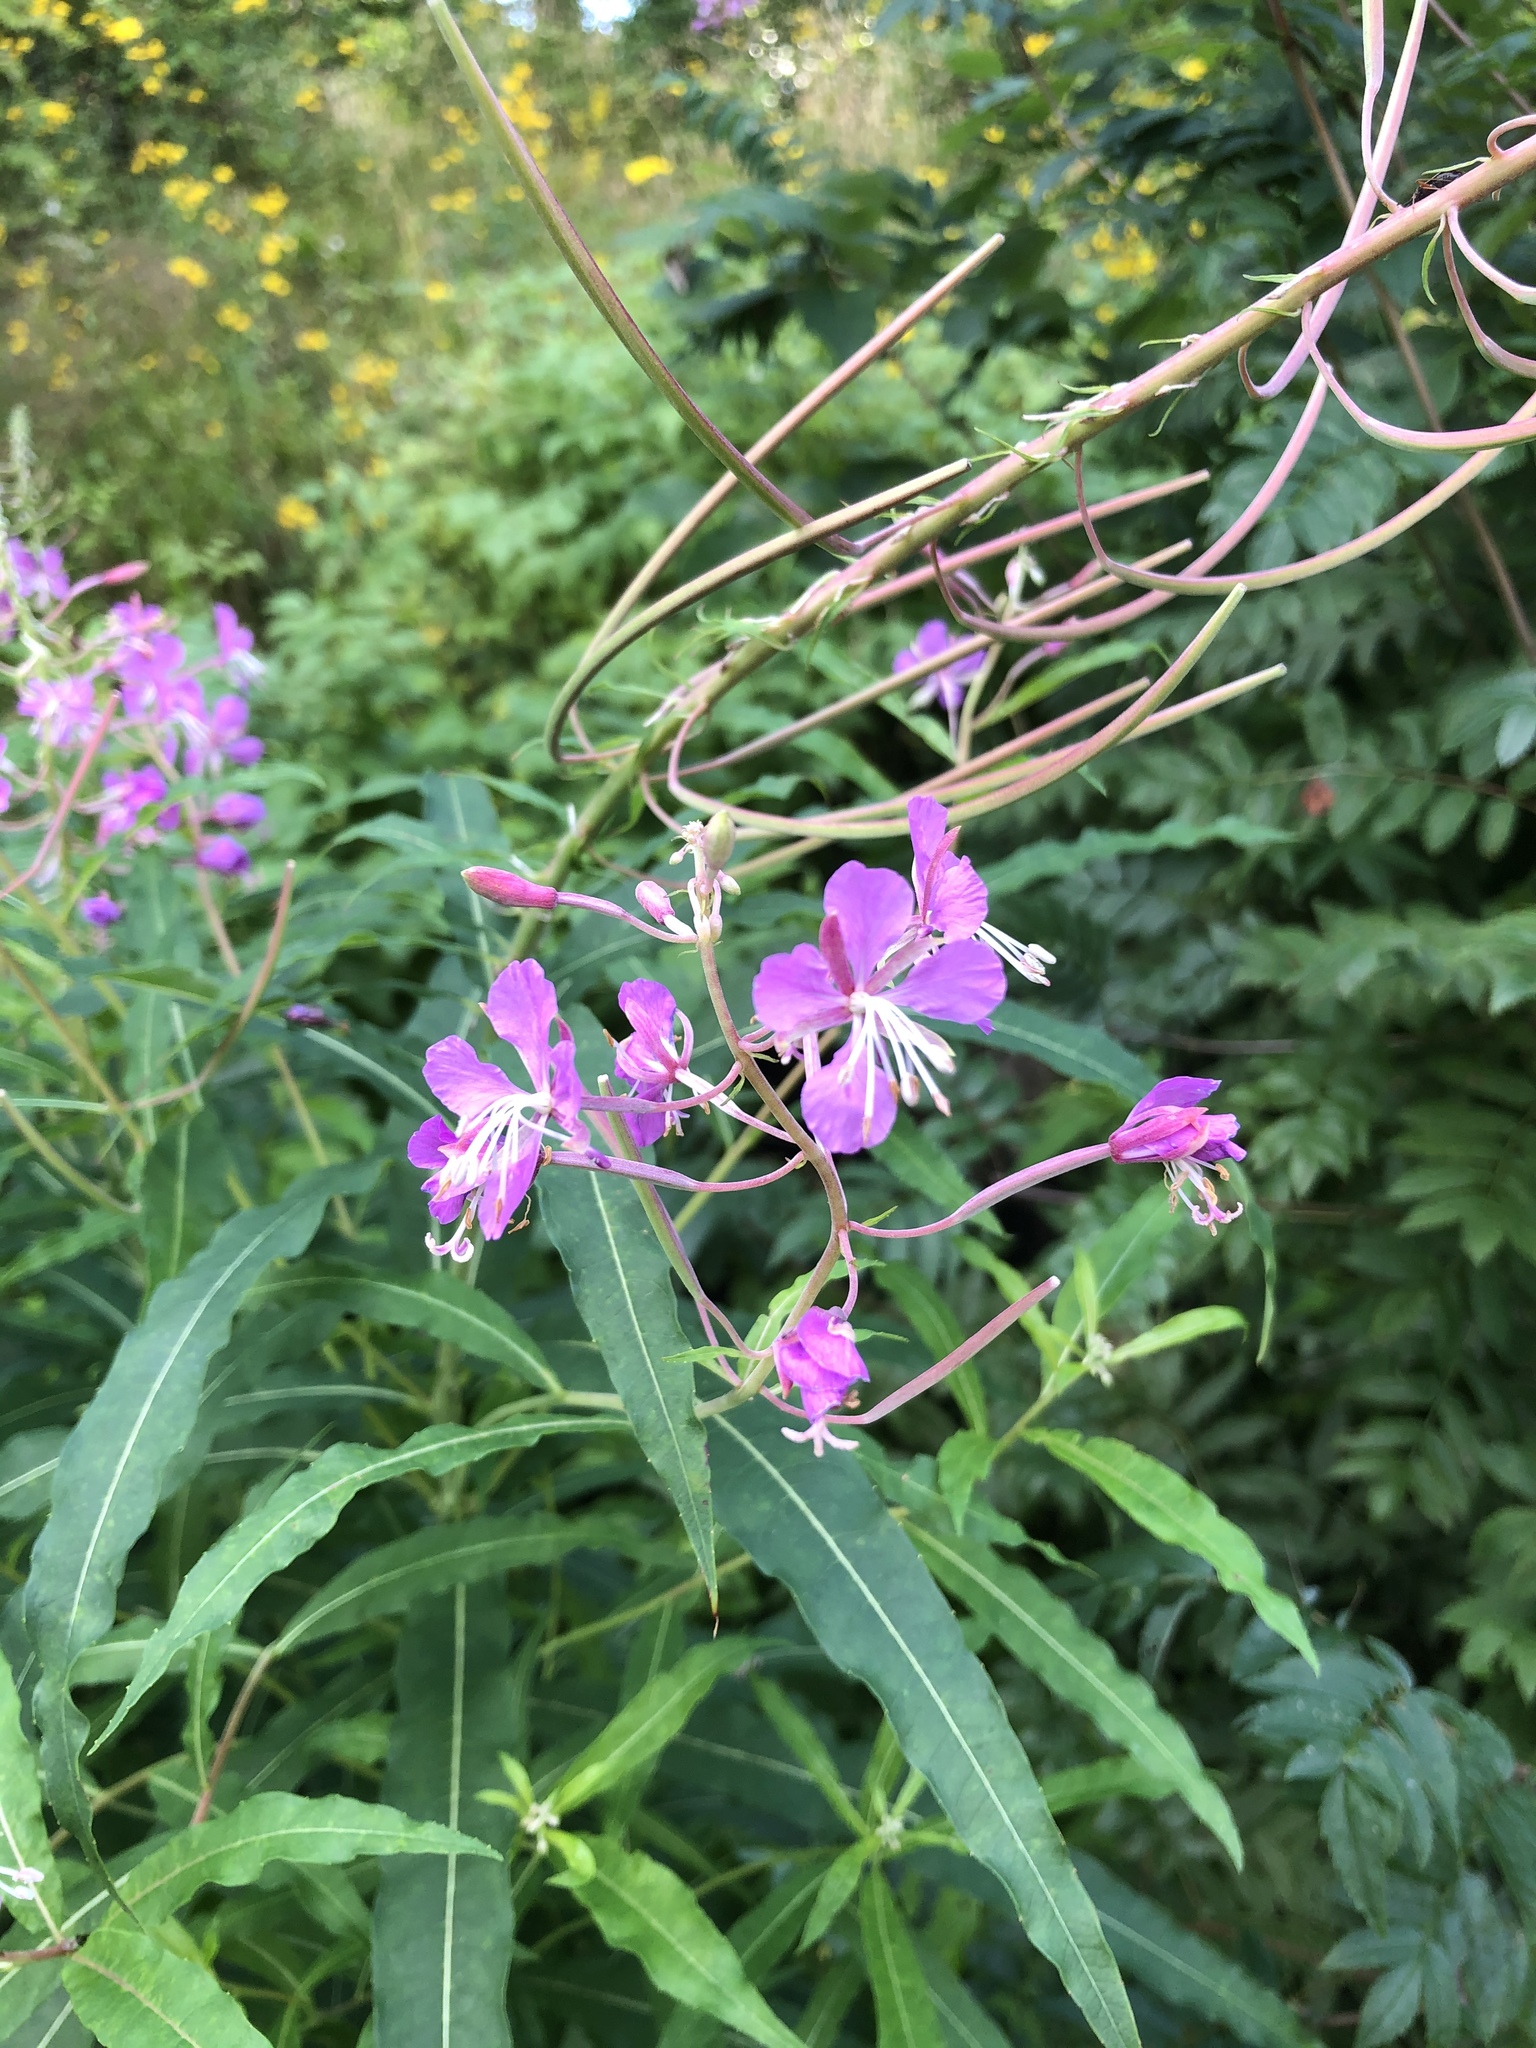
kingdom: Plantae
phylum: Tracheophyta
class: Magnoliopsida
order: Myrtales
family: Onagraceae
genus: Chamaenerion
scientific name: Chamaenerion angustifolium
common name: Fireweed
